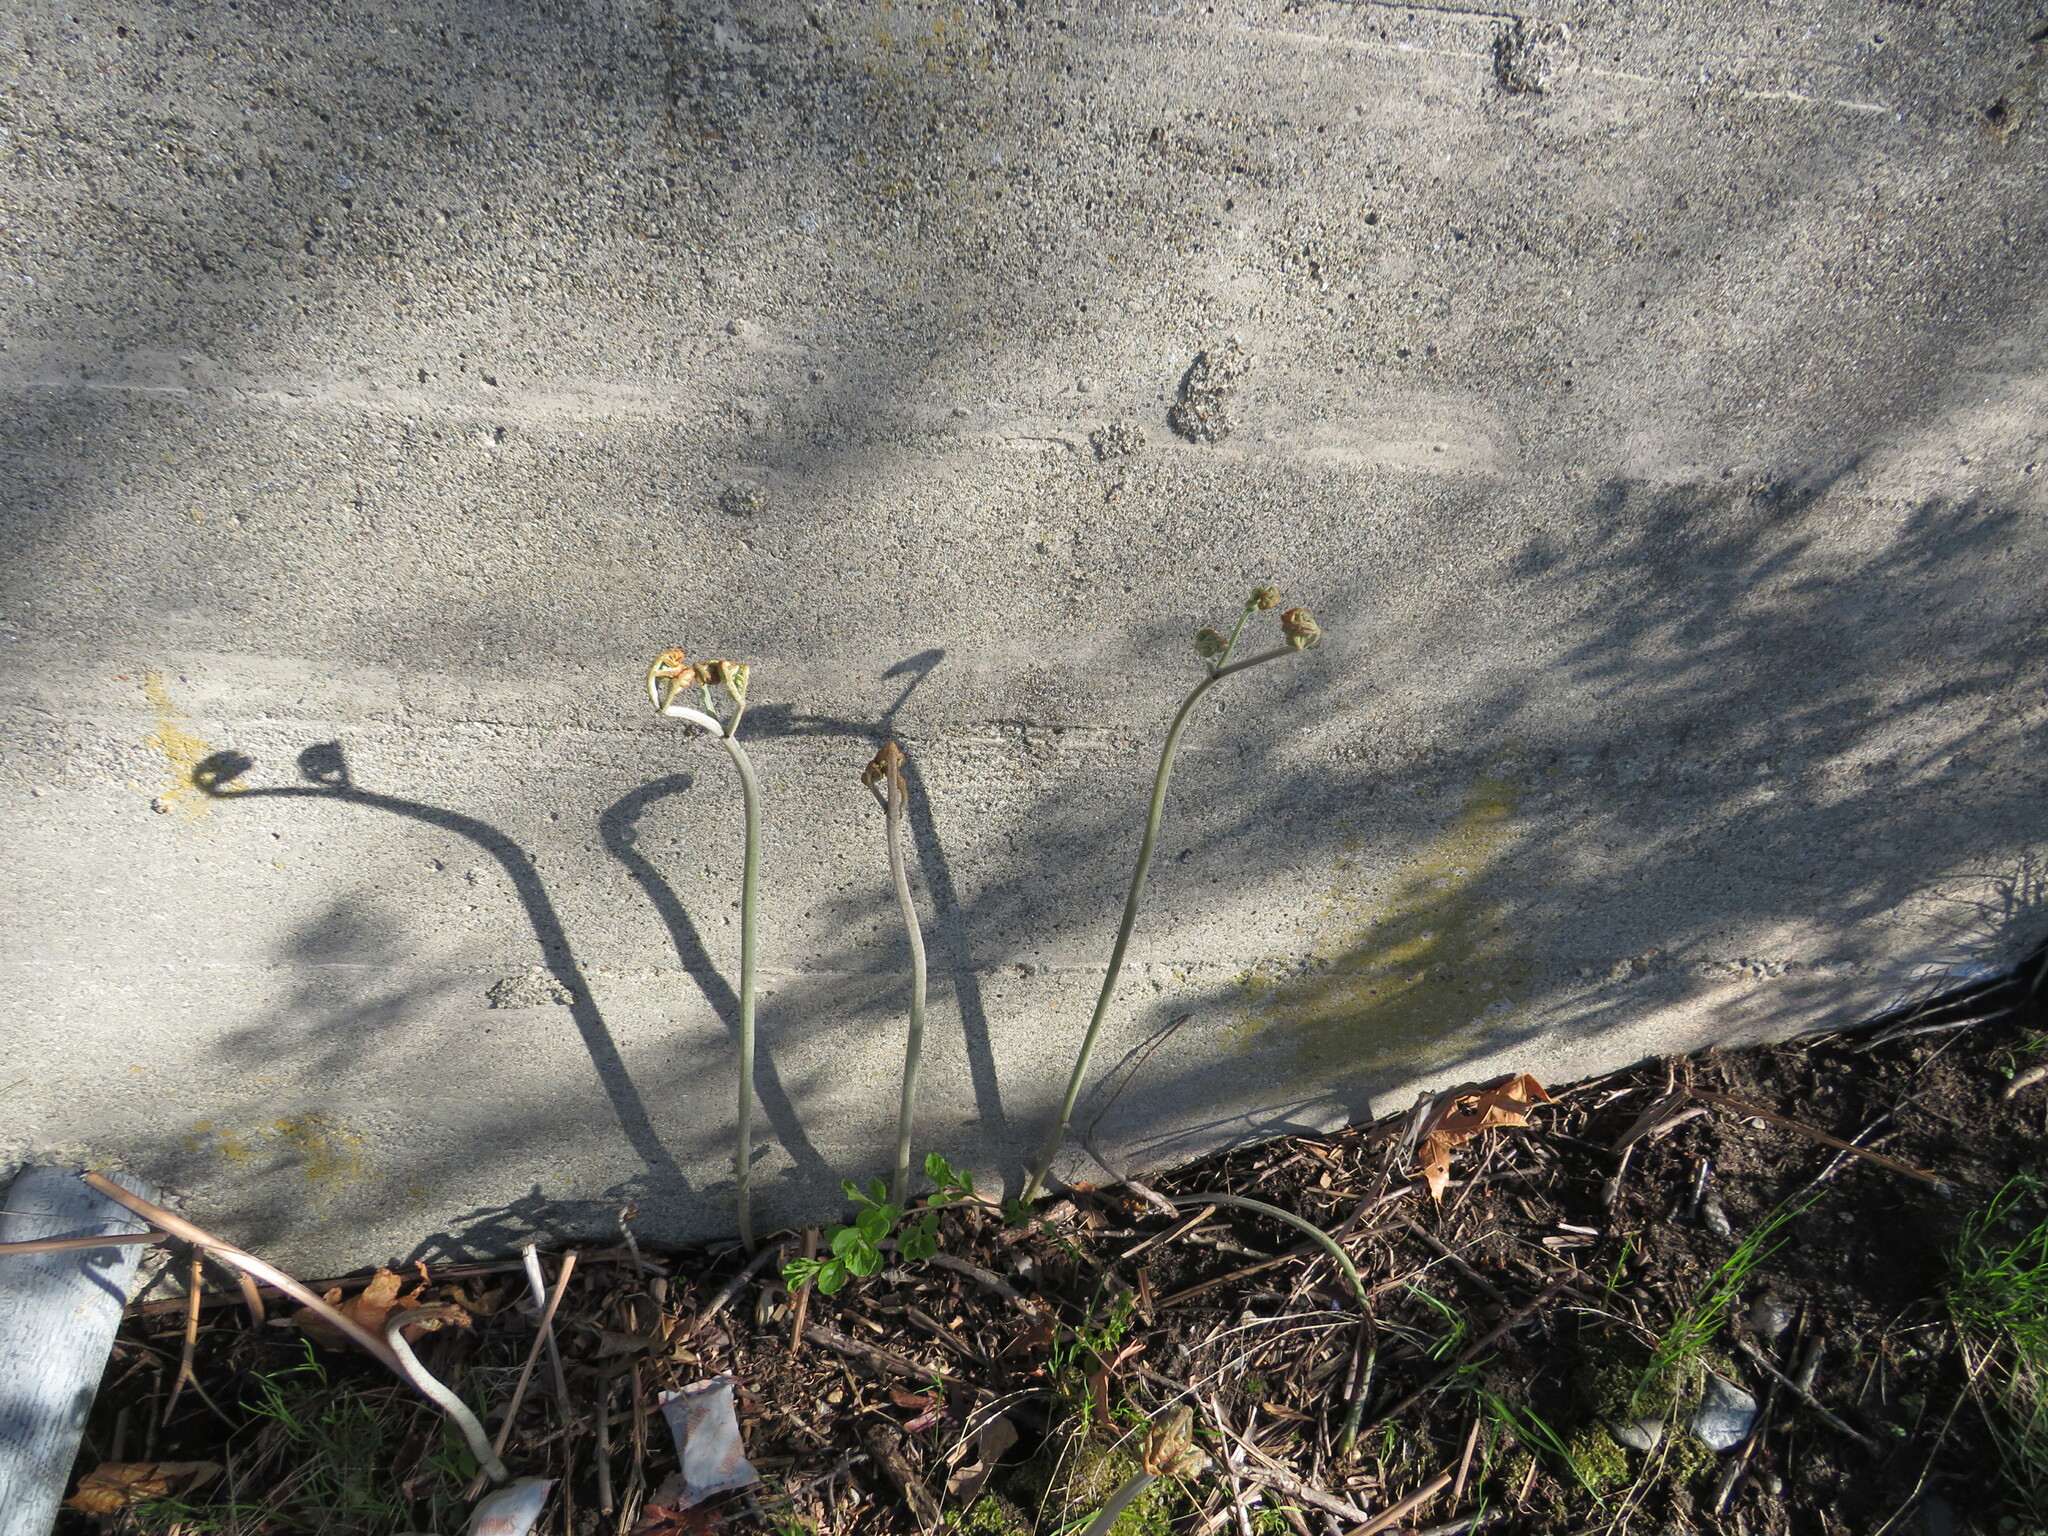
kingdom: Plantae
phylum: Tracheophyta
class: Polypodiopsida
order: Polypodiales
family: Dennstaedtiaceae
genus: Pteridium
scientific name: Pteridium aquilinum
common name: Bracken
